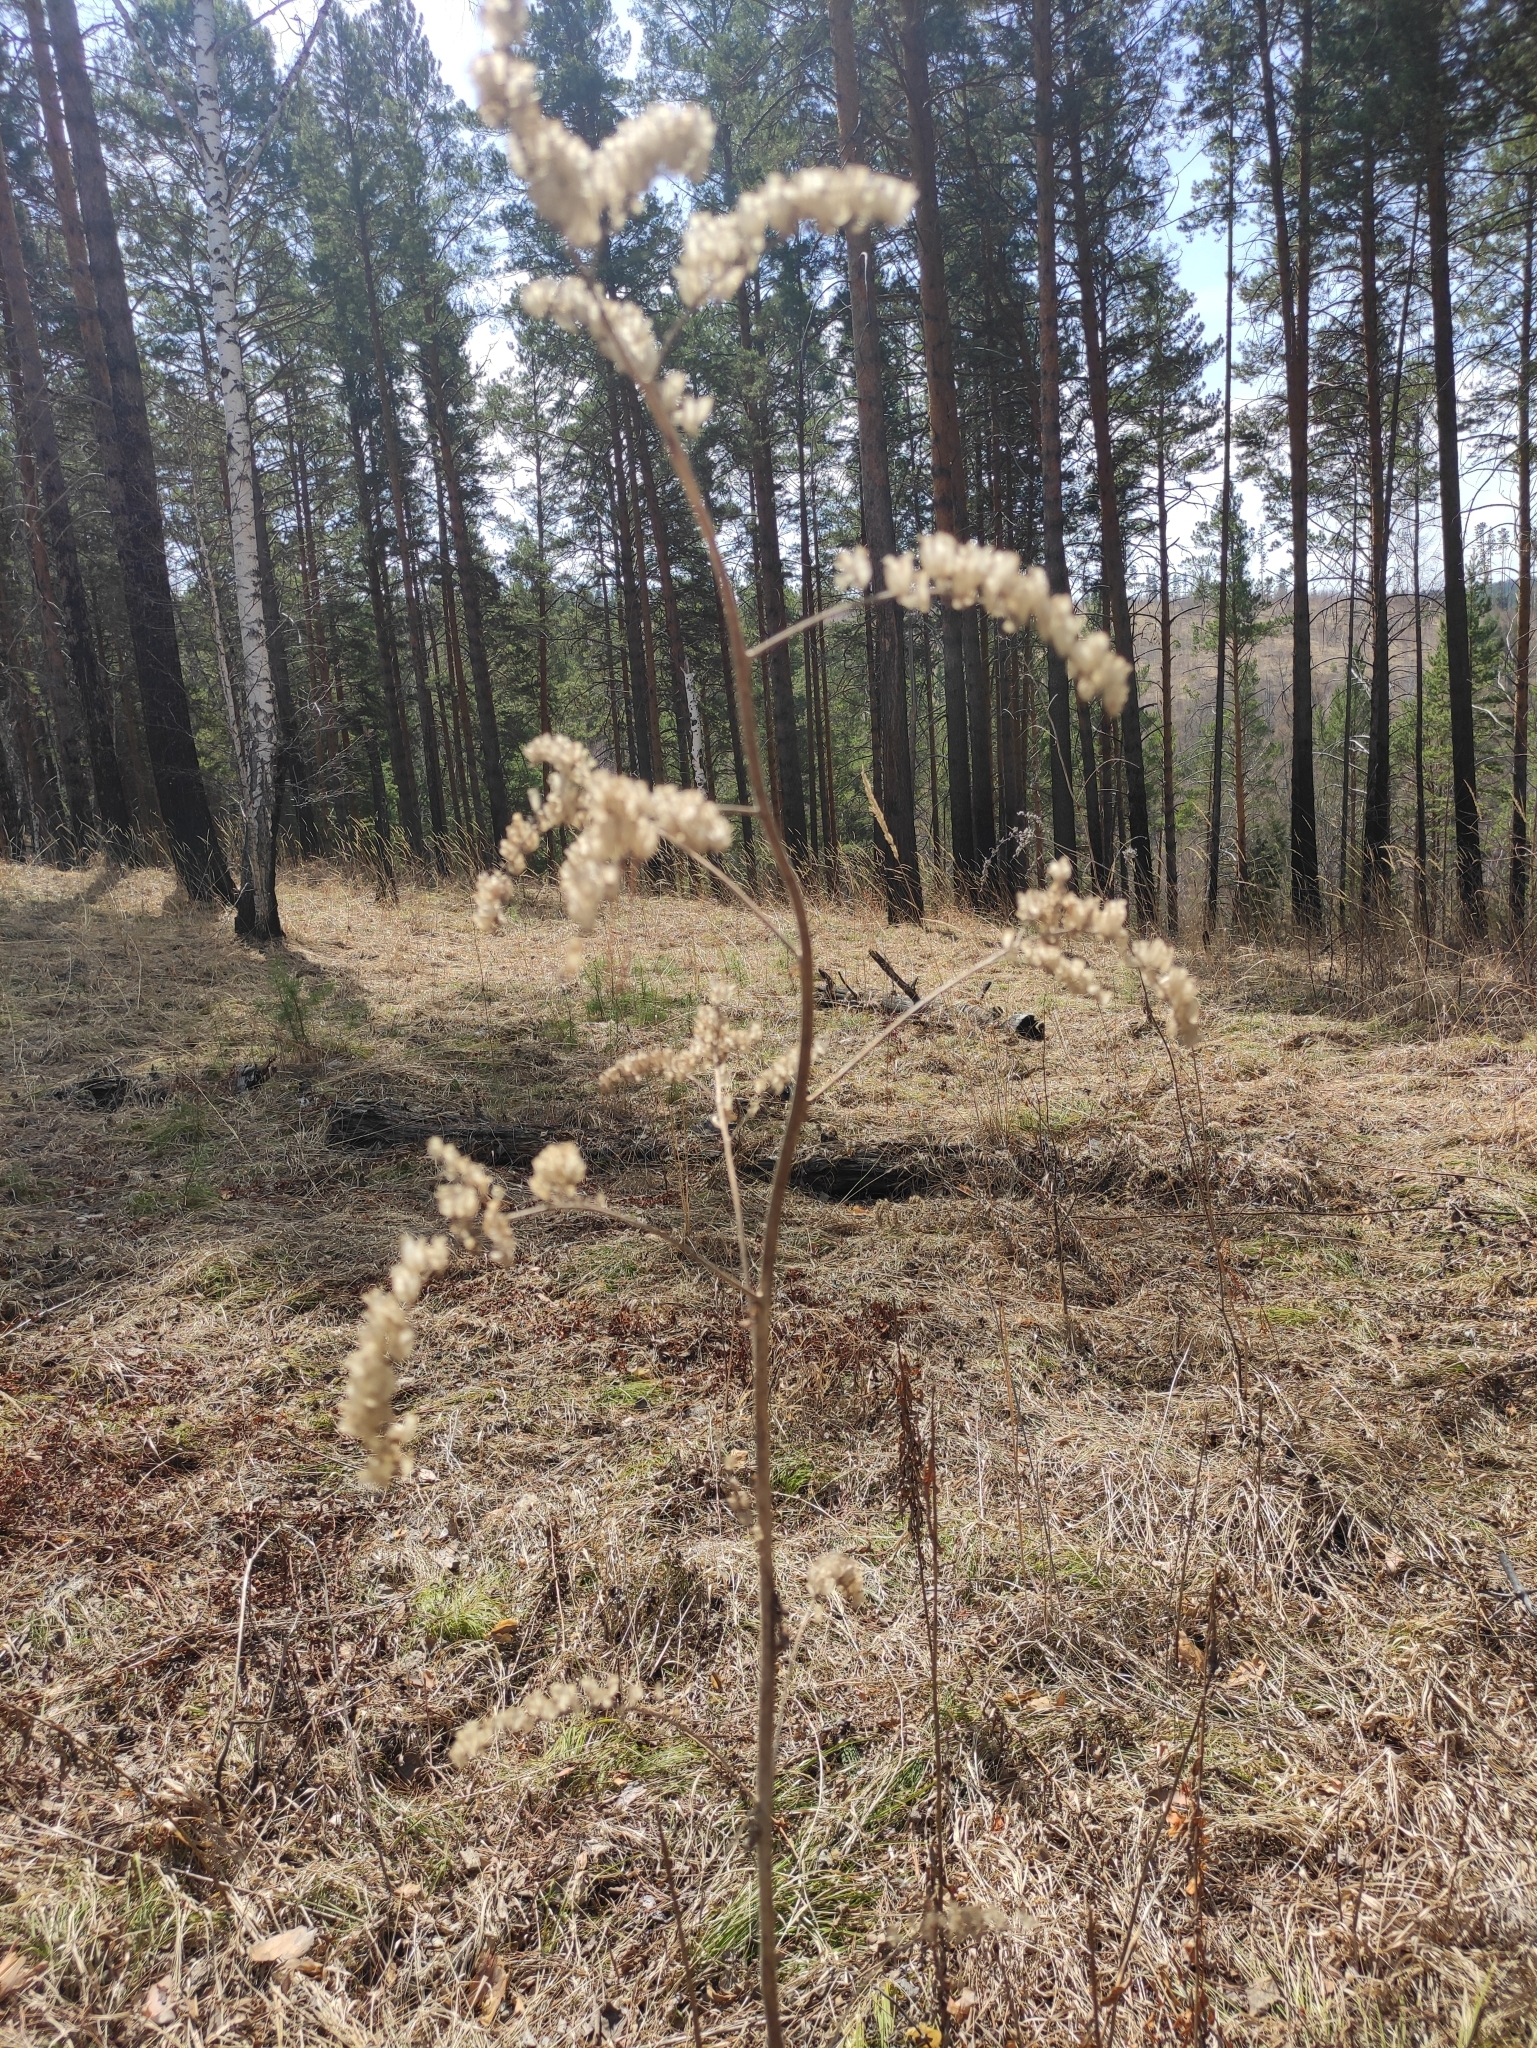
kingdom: Plantae
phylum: Tracheophyta
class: Magnoliopsida
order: Ranunculales
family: Ranunculaceae
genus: Actaea
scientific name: Actaea cimicifuga
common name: Chinese cimicifuga
